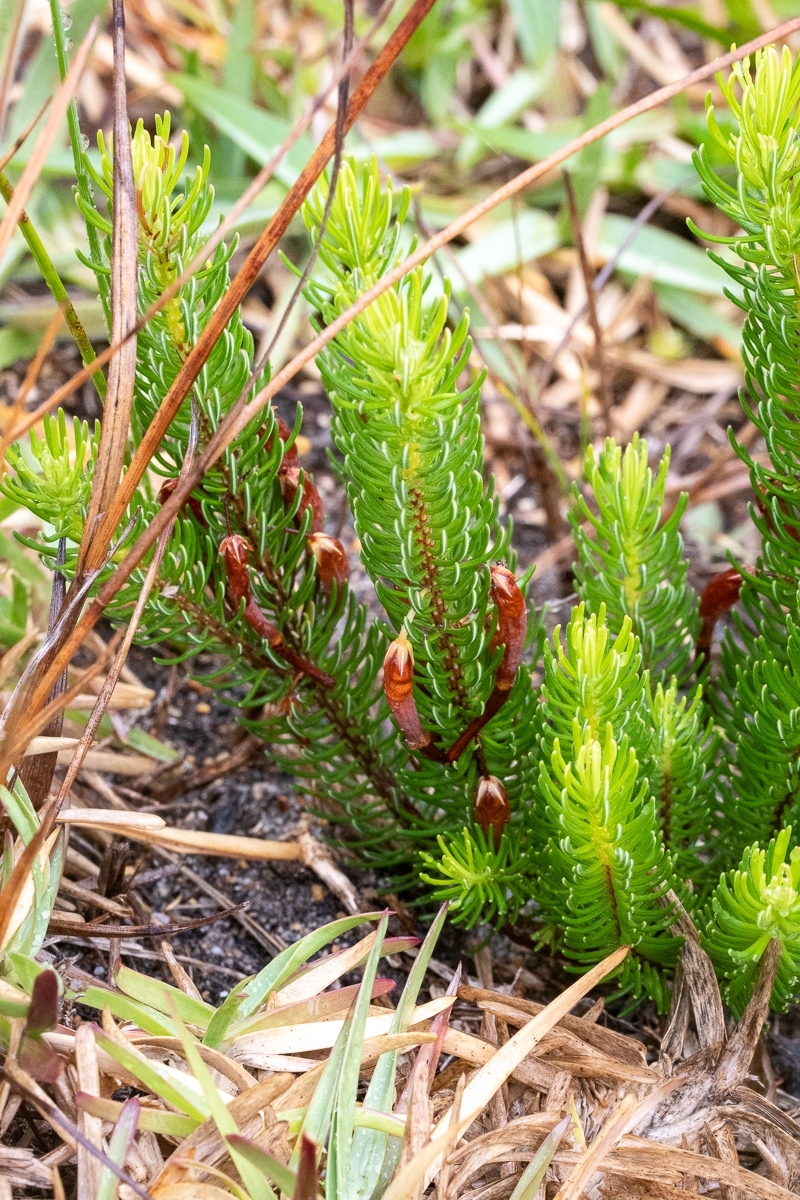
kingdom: Plantae
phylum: Tracheophyta
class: Magnoliopsida
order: Ericales
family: Ericaceae
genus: Erica
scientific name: Erica plukenetii
